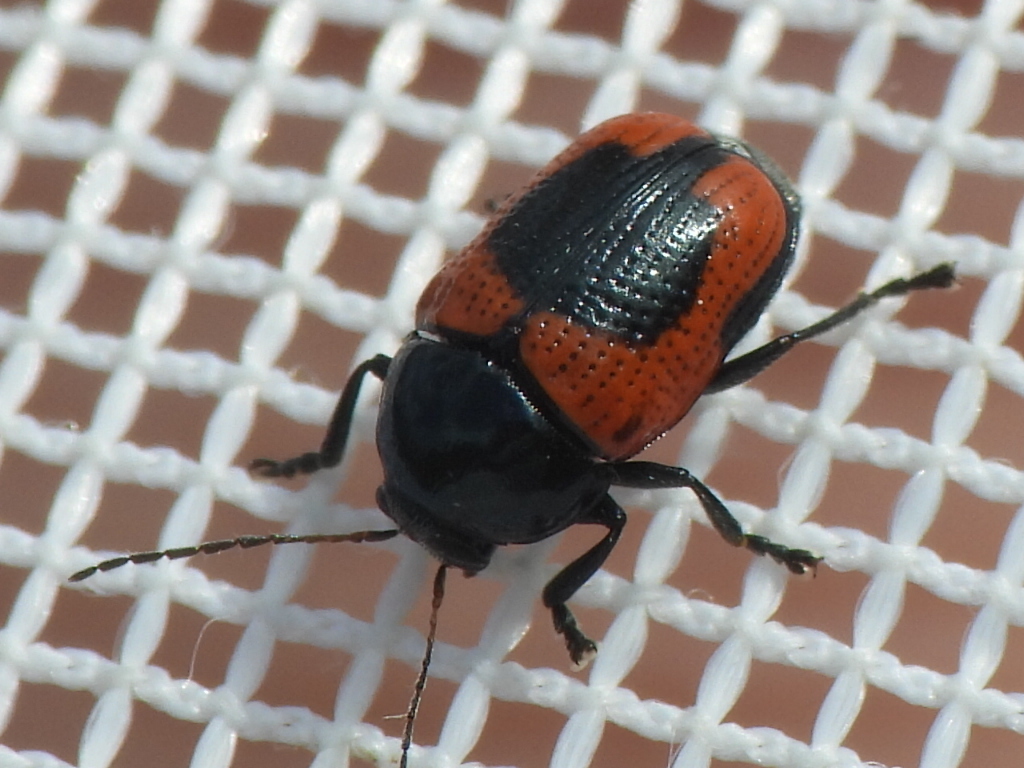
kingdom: Animalia
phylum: Arthropoda
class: Insecta
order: Coleoptera
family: Chrysomelidae
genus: Cryptocephalus
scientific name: Cryptocephalus notatus
